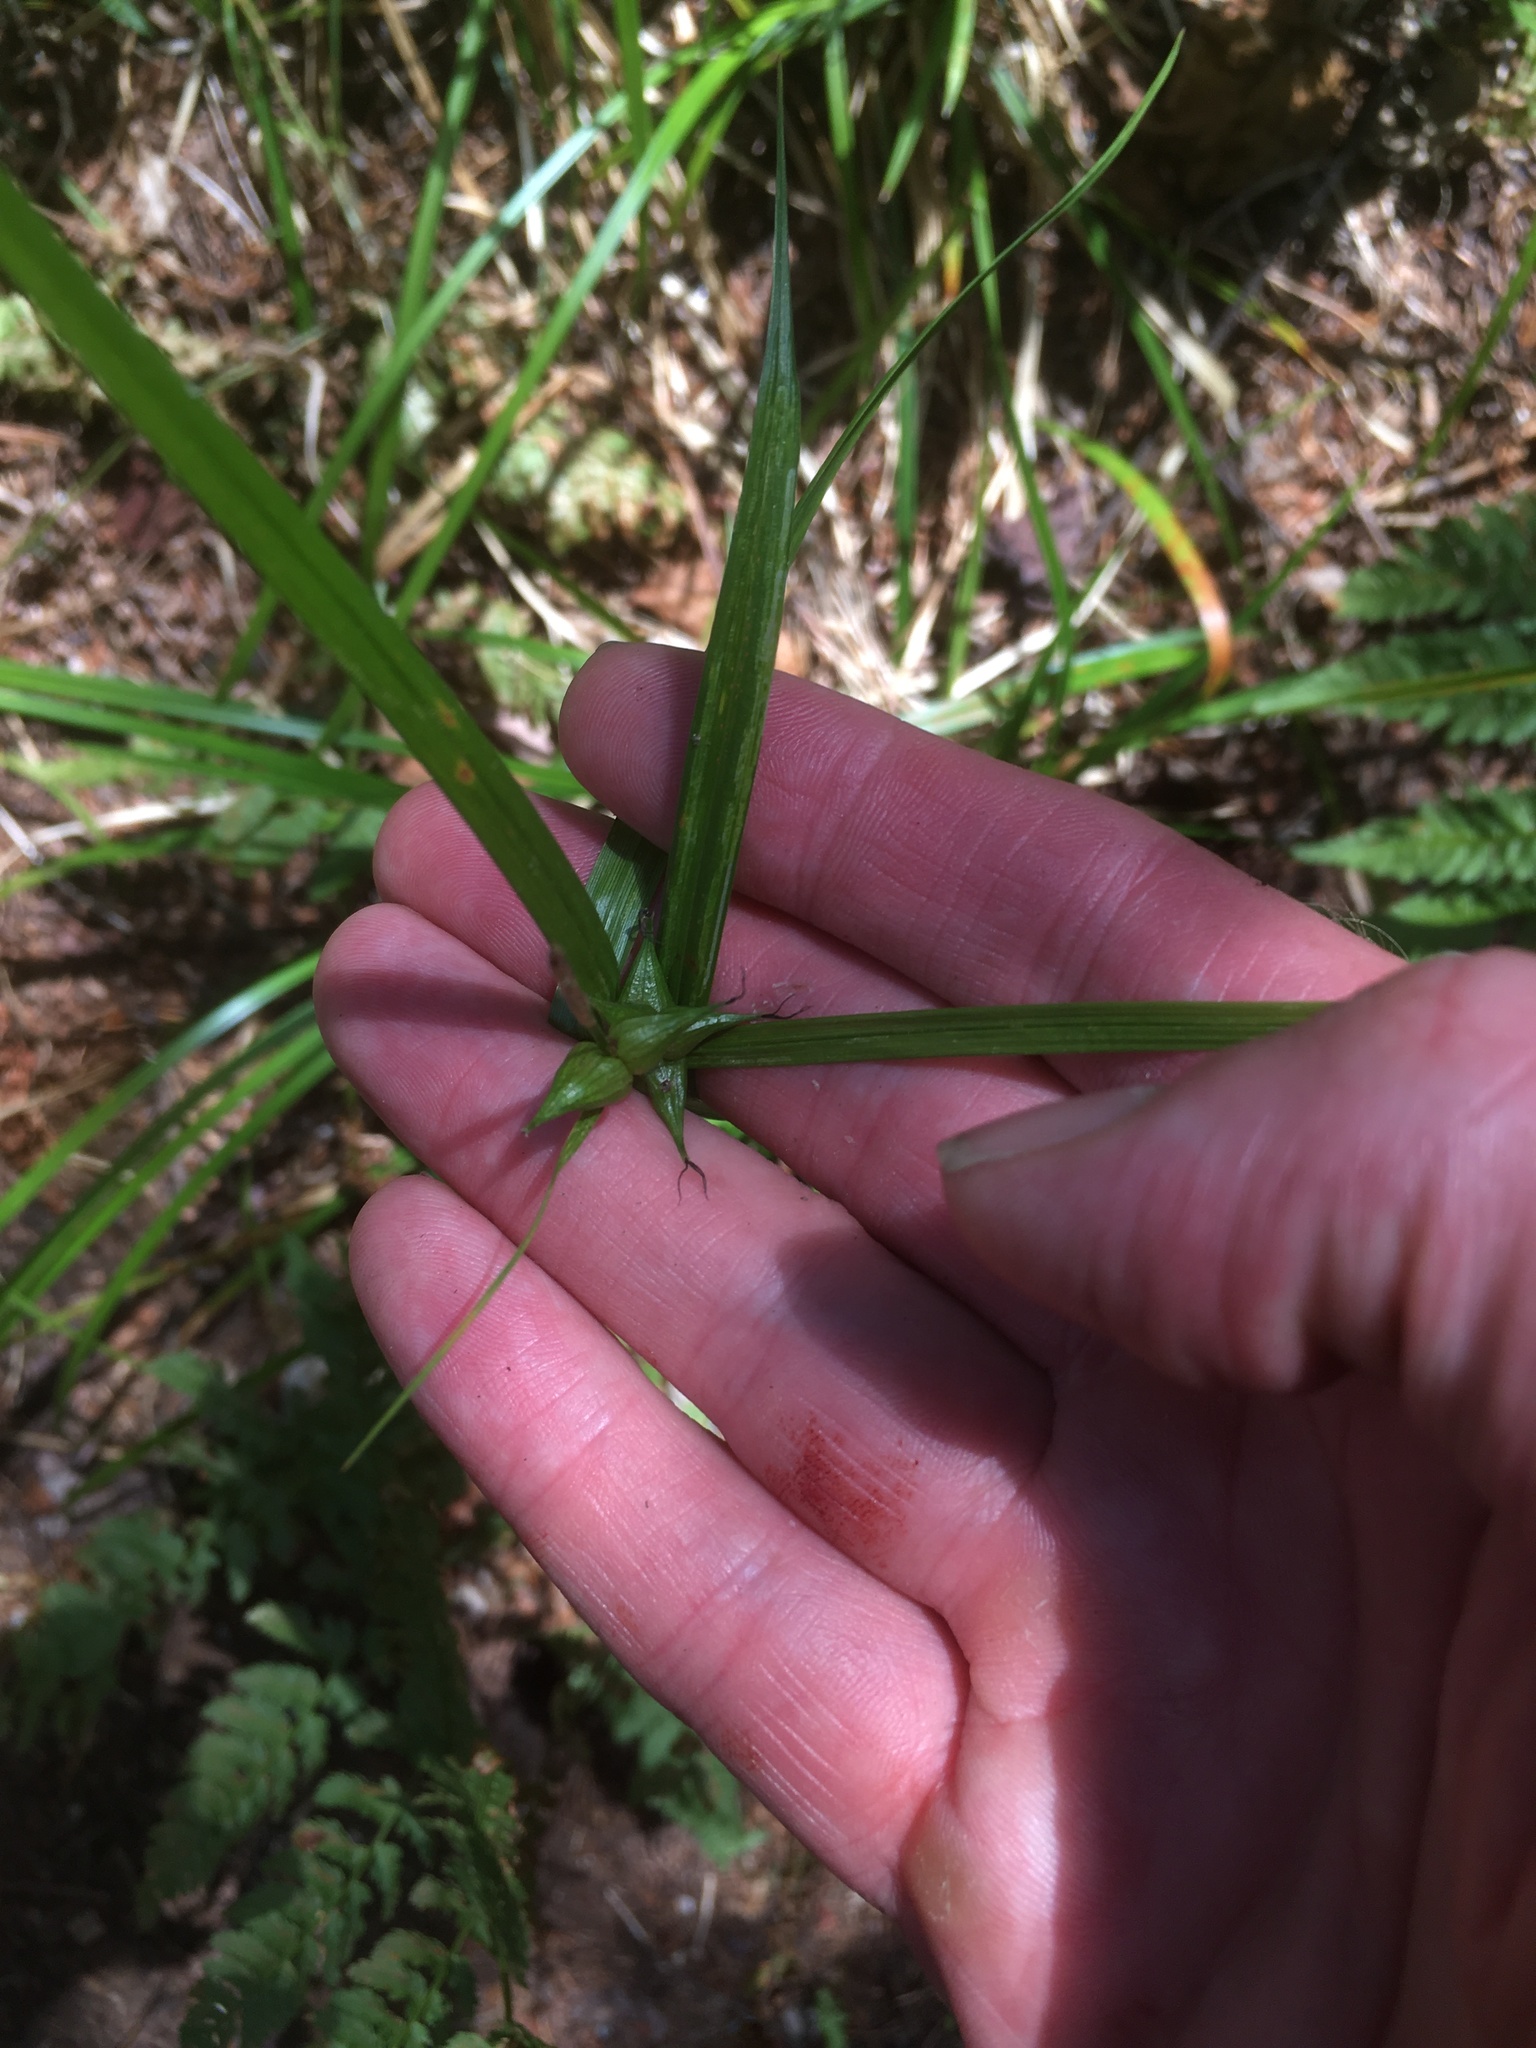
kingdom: Plantae
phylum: Tracheophyta
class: Liliopsida
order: Poales
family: Cyperaceae
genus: Carex
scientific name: Carex intumescens
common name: Greater bladder sedge
